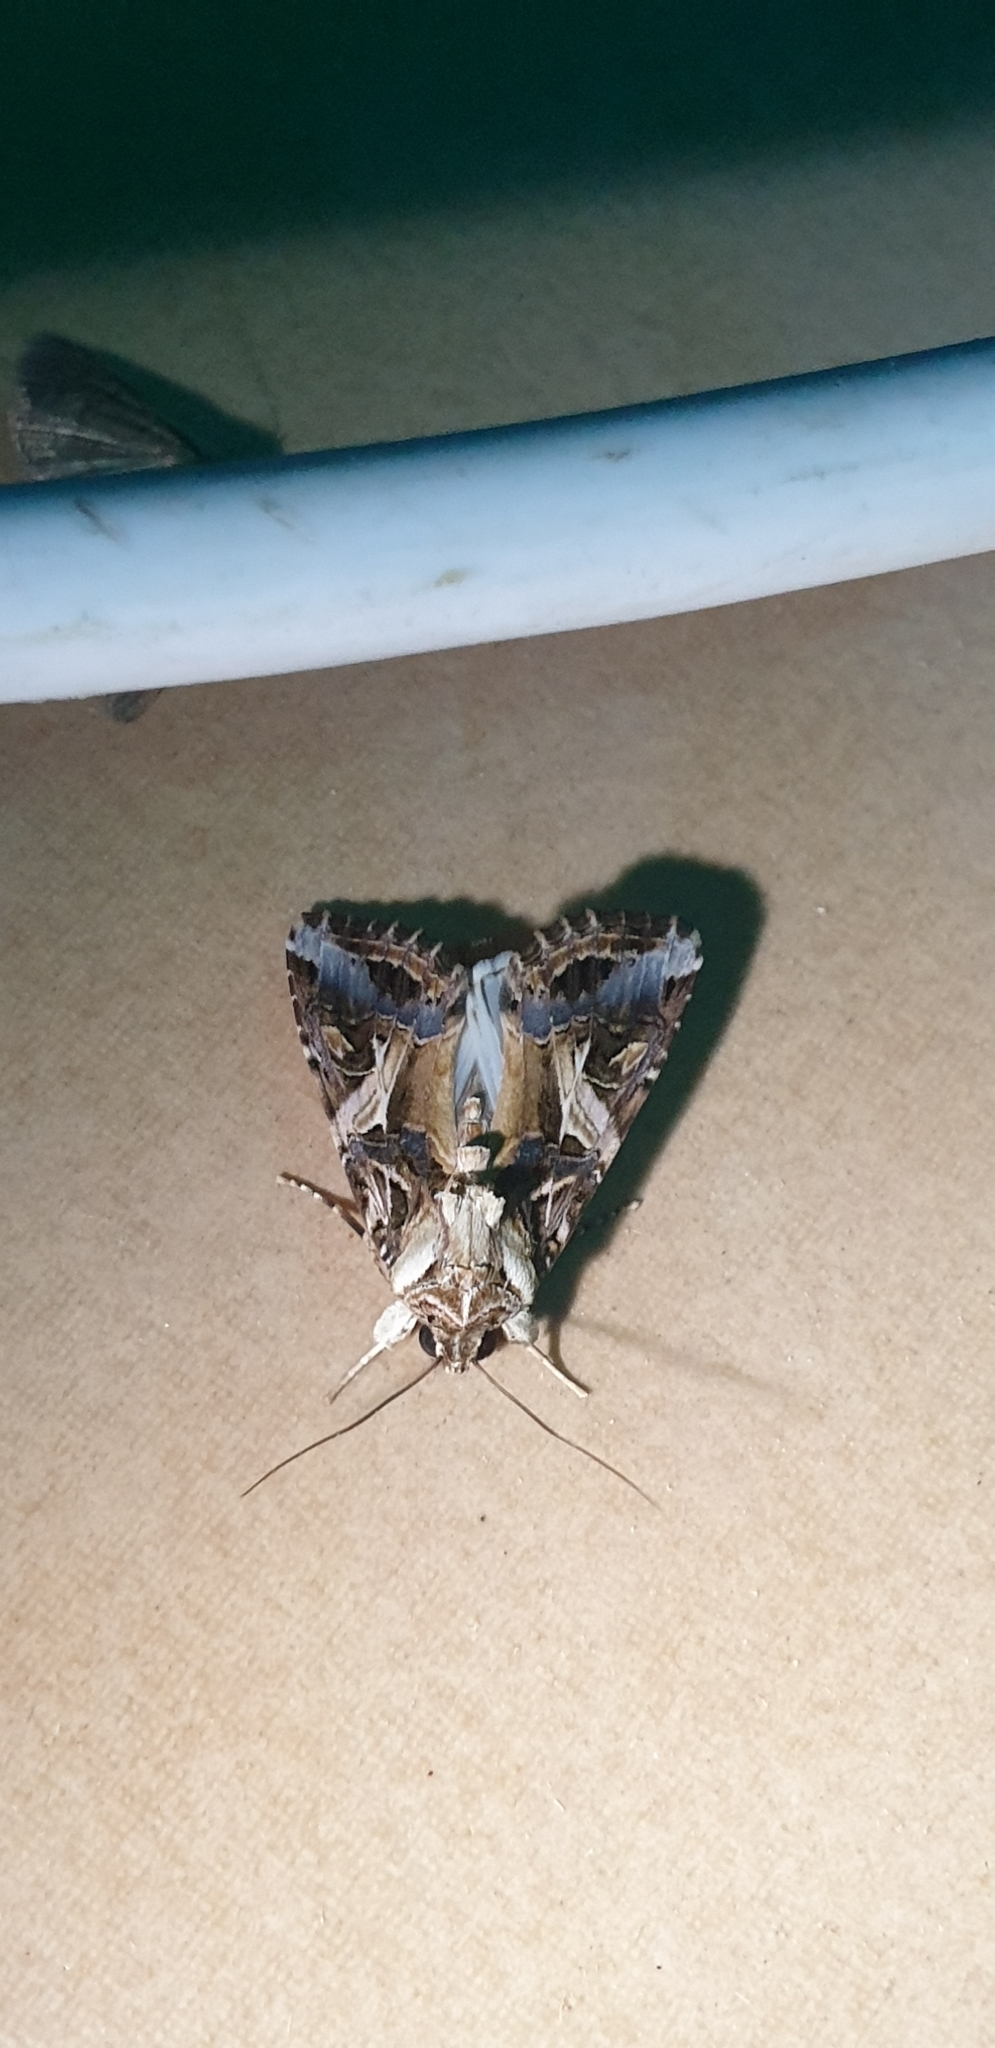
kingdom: Animalia
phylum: Arthropoda
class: Insecta
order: Lepidoptera
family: Noctuidae
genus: Spodoptera
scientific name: Spodoptera litura
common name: Asian cotton leafworm
